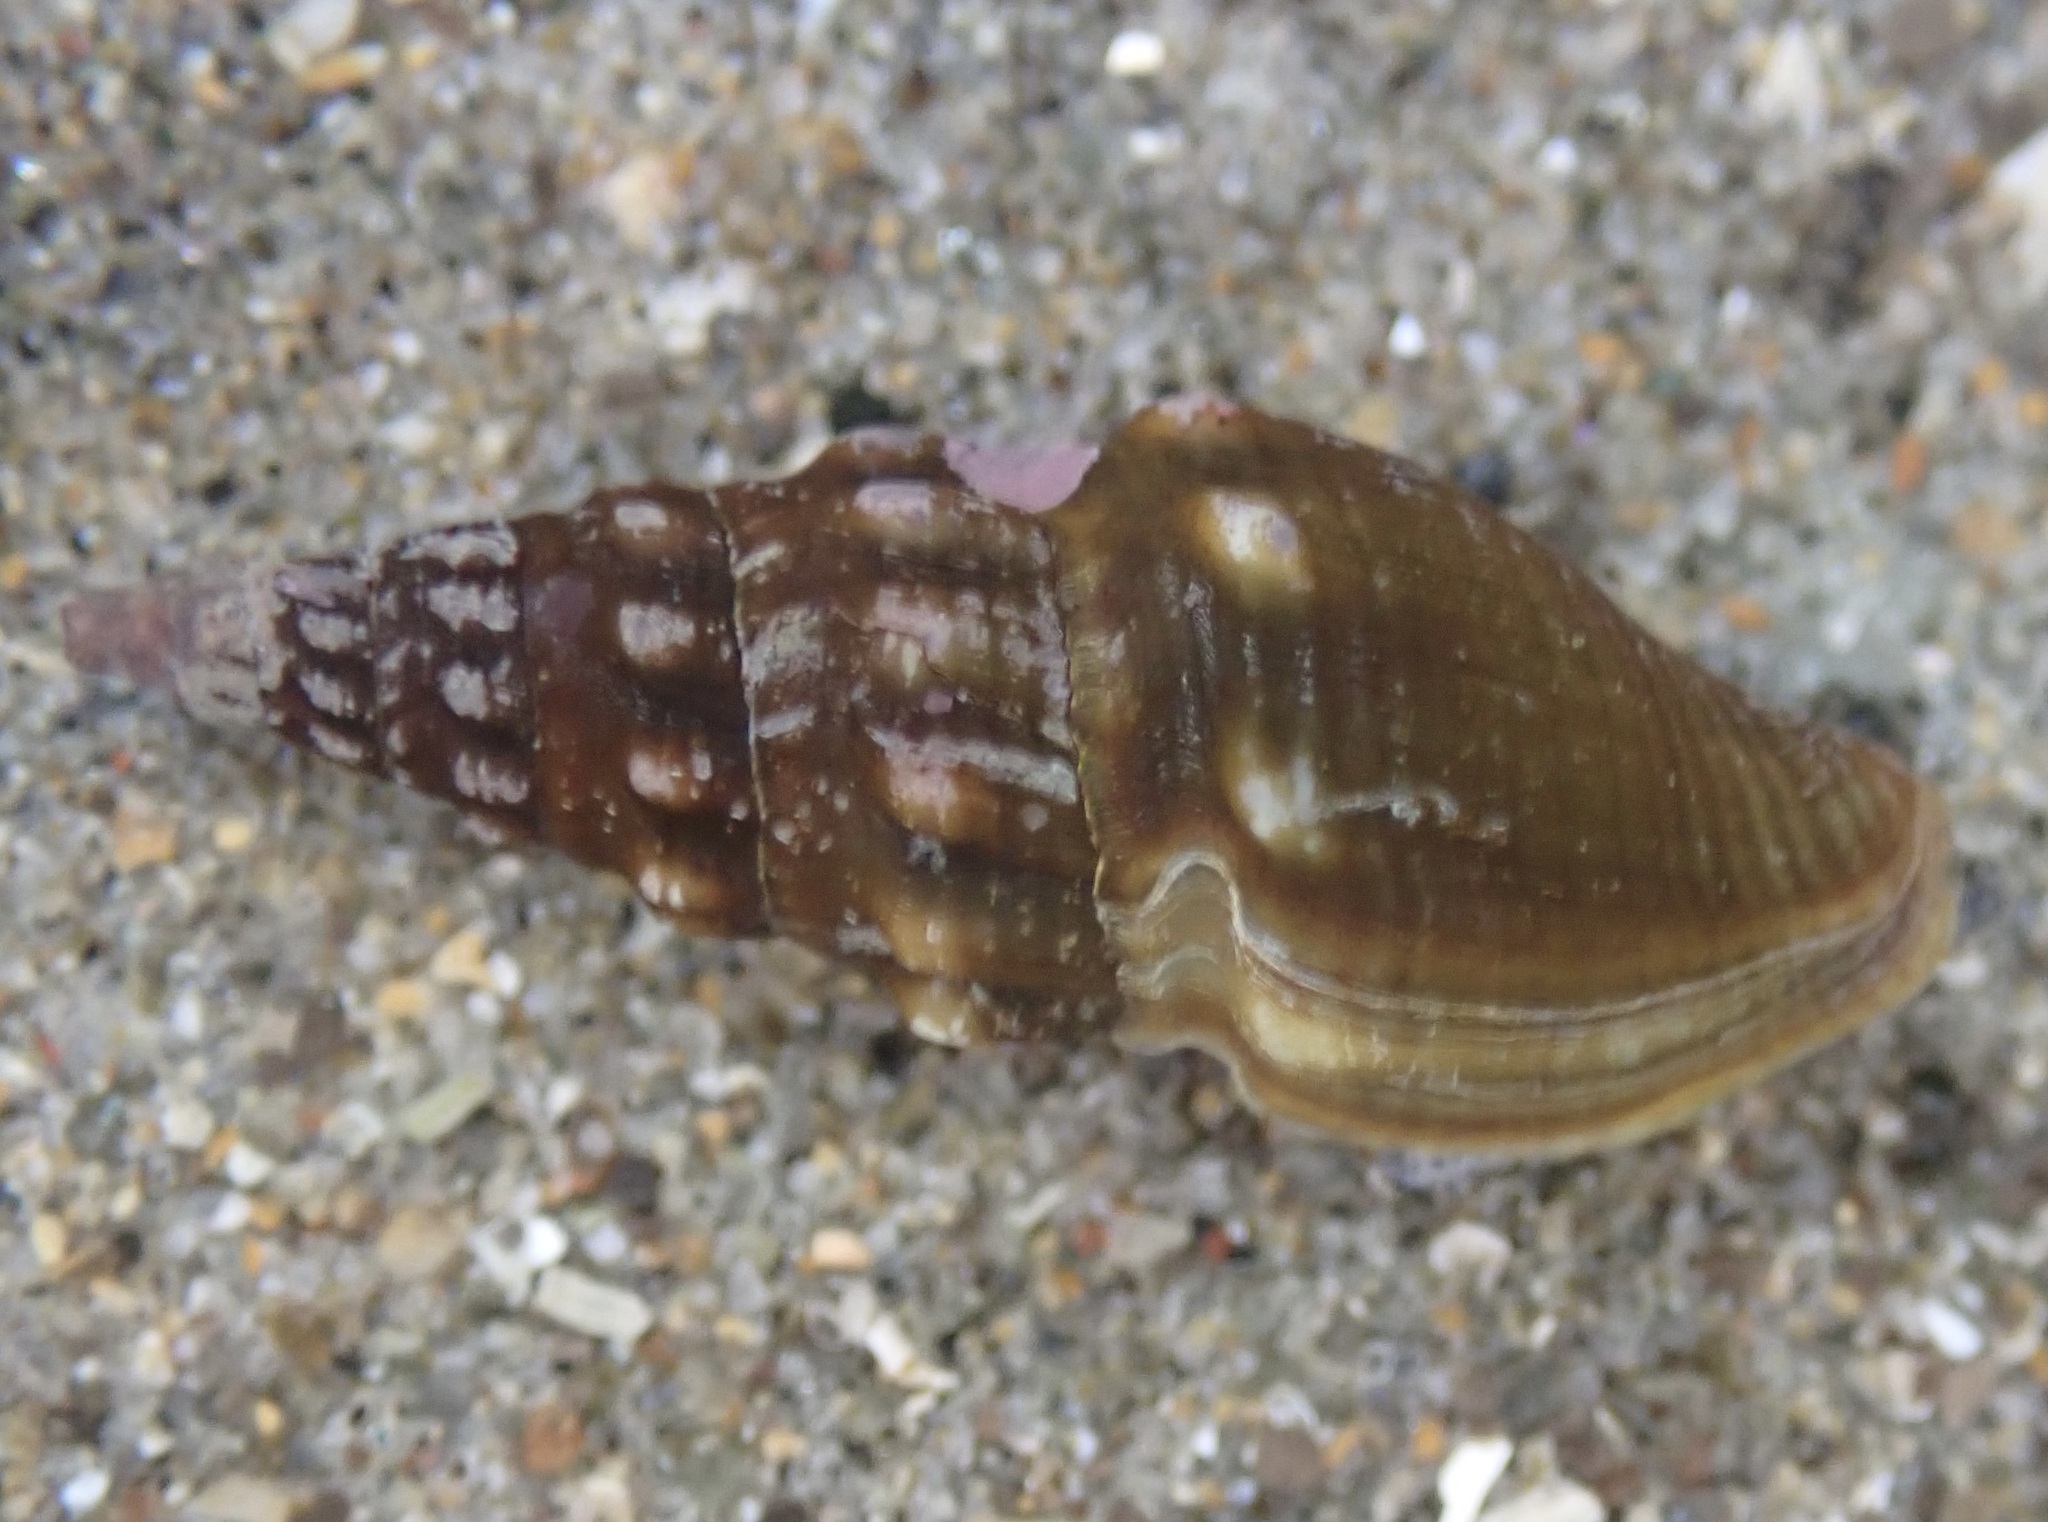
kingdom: Animalia
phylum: Mollusca
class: Gastropoda
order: Neogastropoda
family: Pseudomelatomidae
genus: Pseudomelatoma
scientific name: Pseudomelatoma torosa
